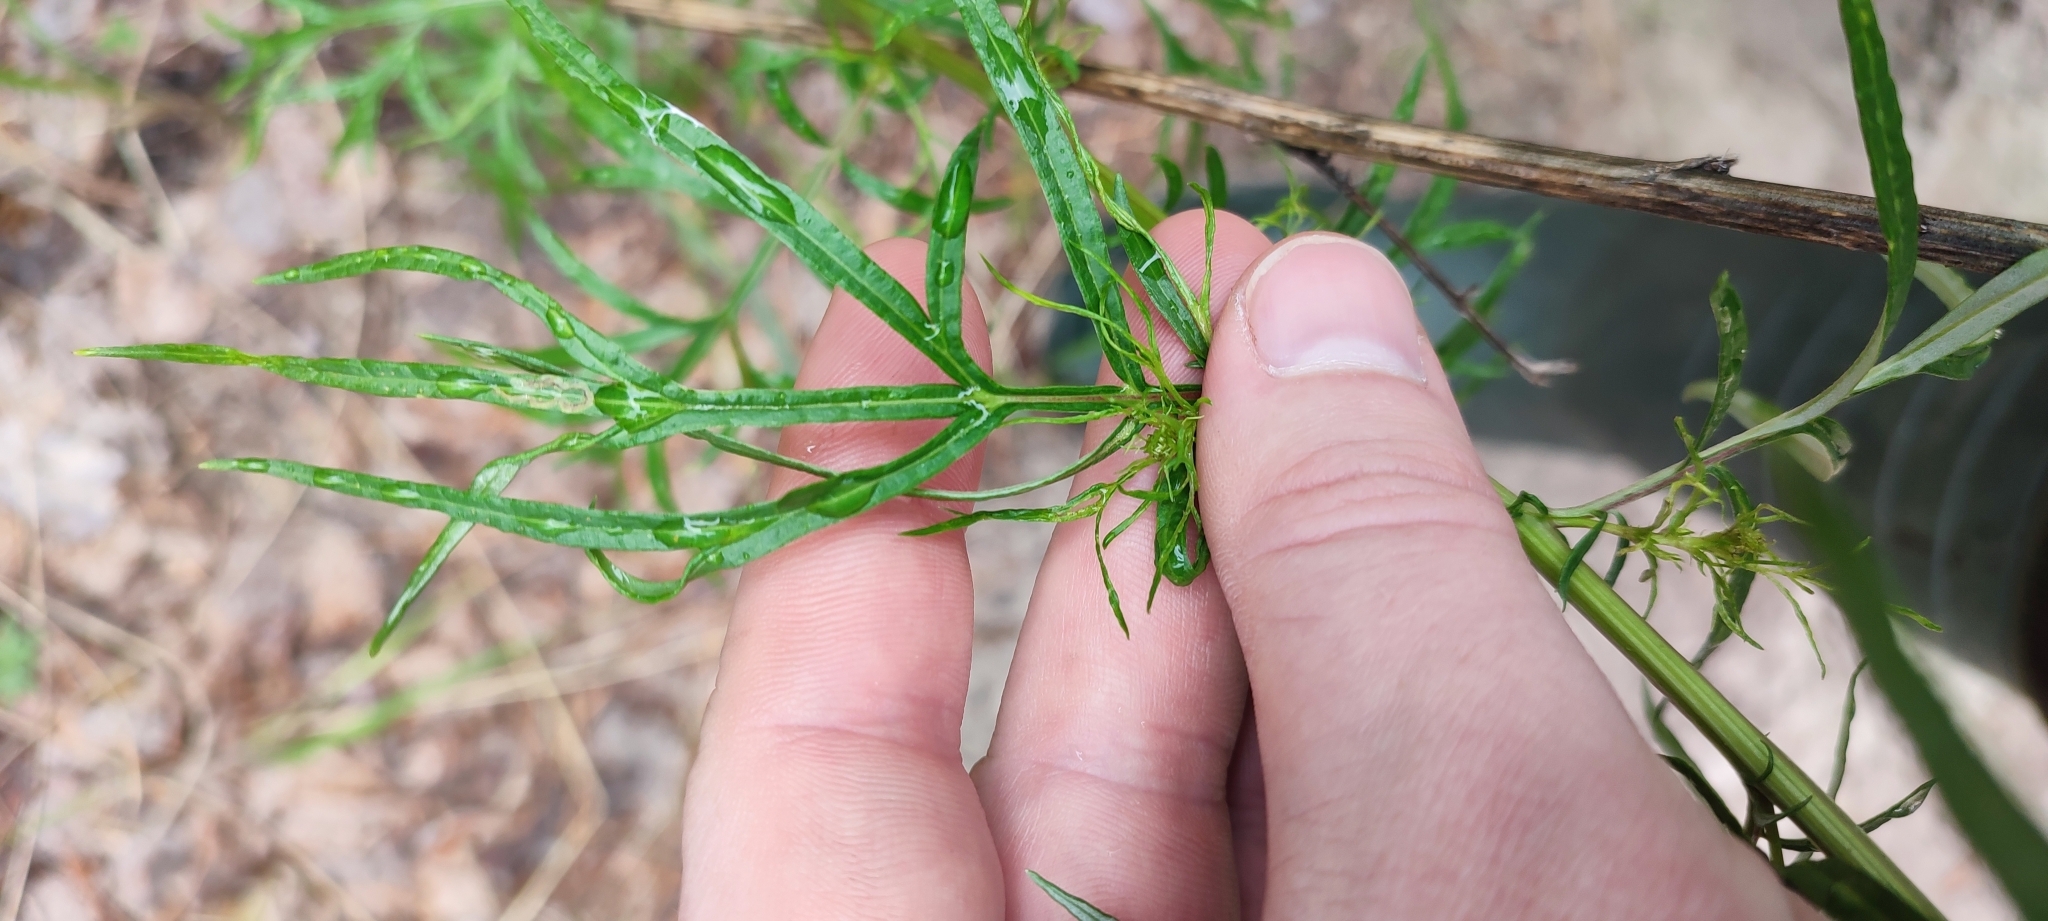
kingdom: Plantae
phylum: Tracheophyta
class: Magnoliopsida
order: Asterales
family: Asteraceae
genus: Artemisia
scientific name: Artemisia vulgaris
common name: Mugwort
